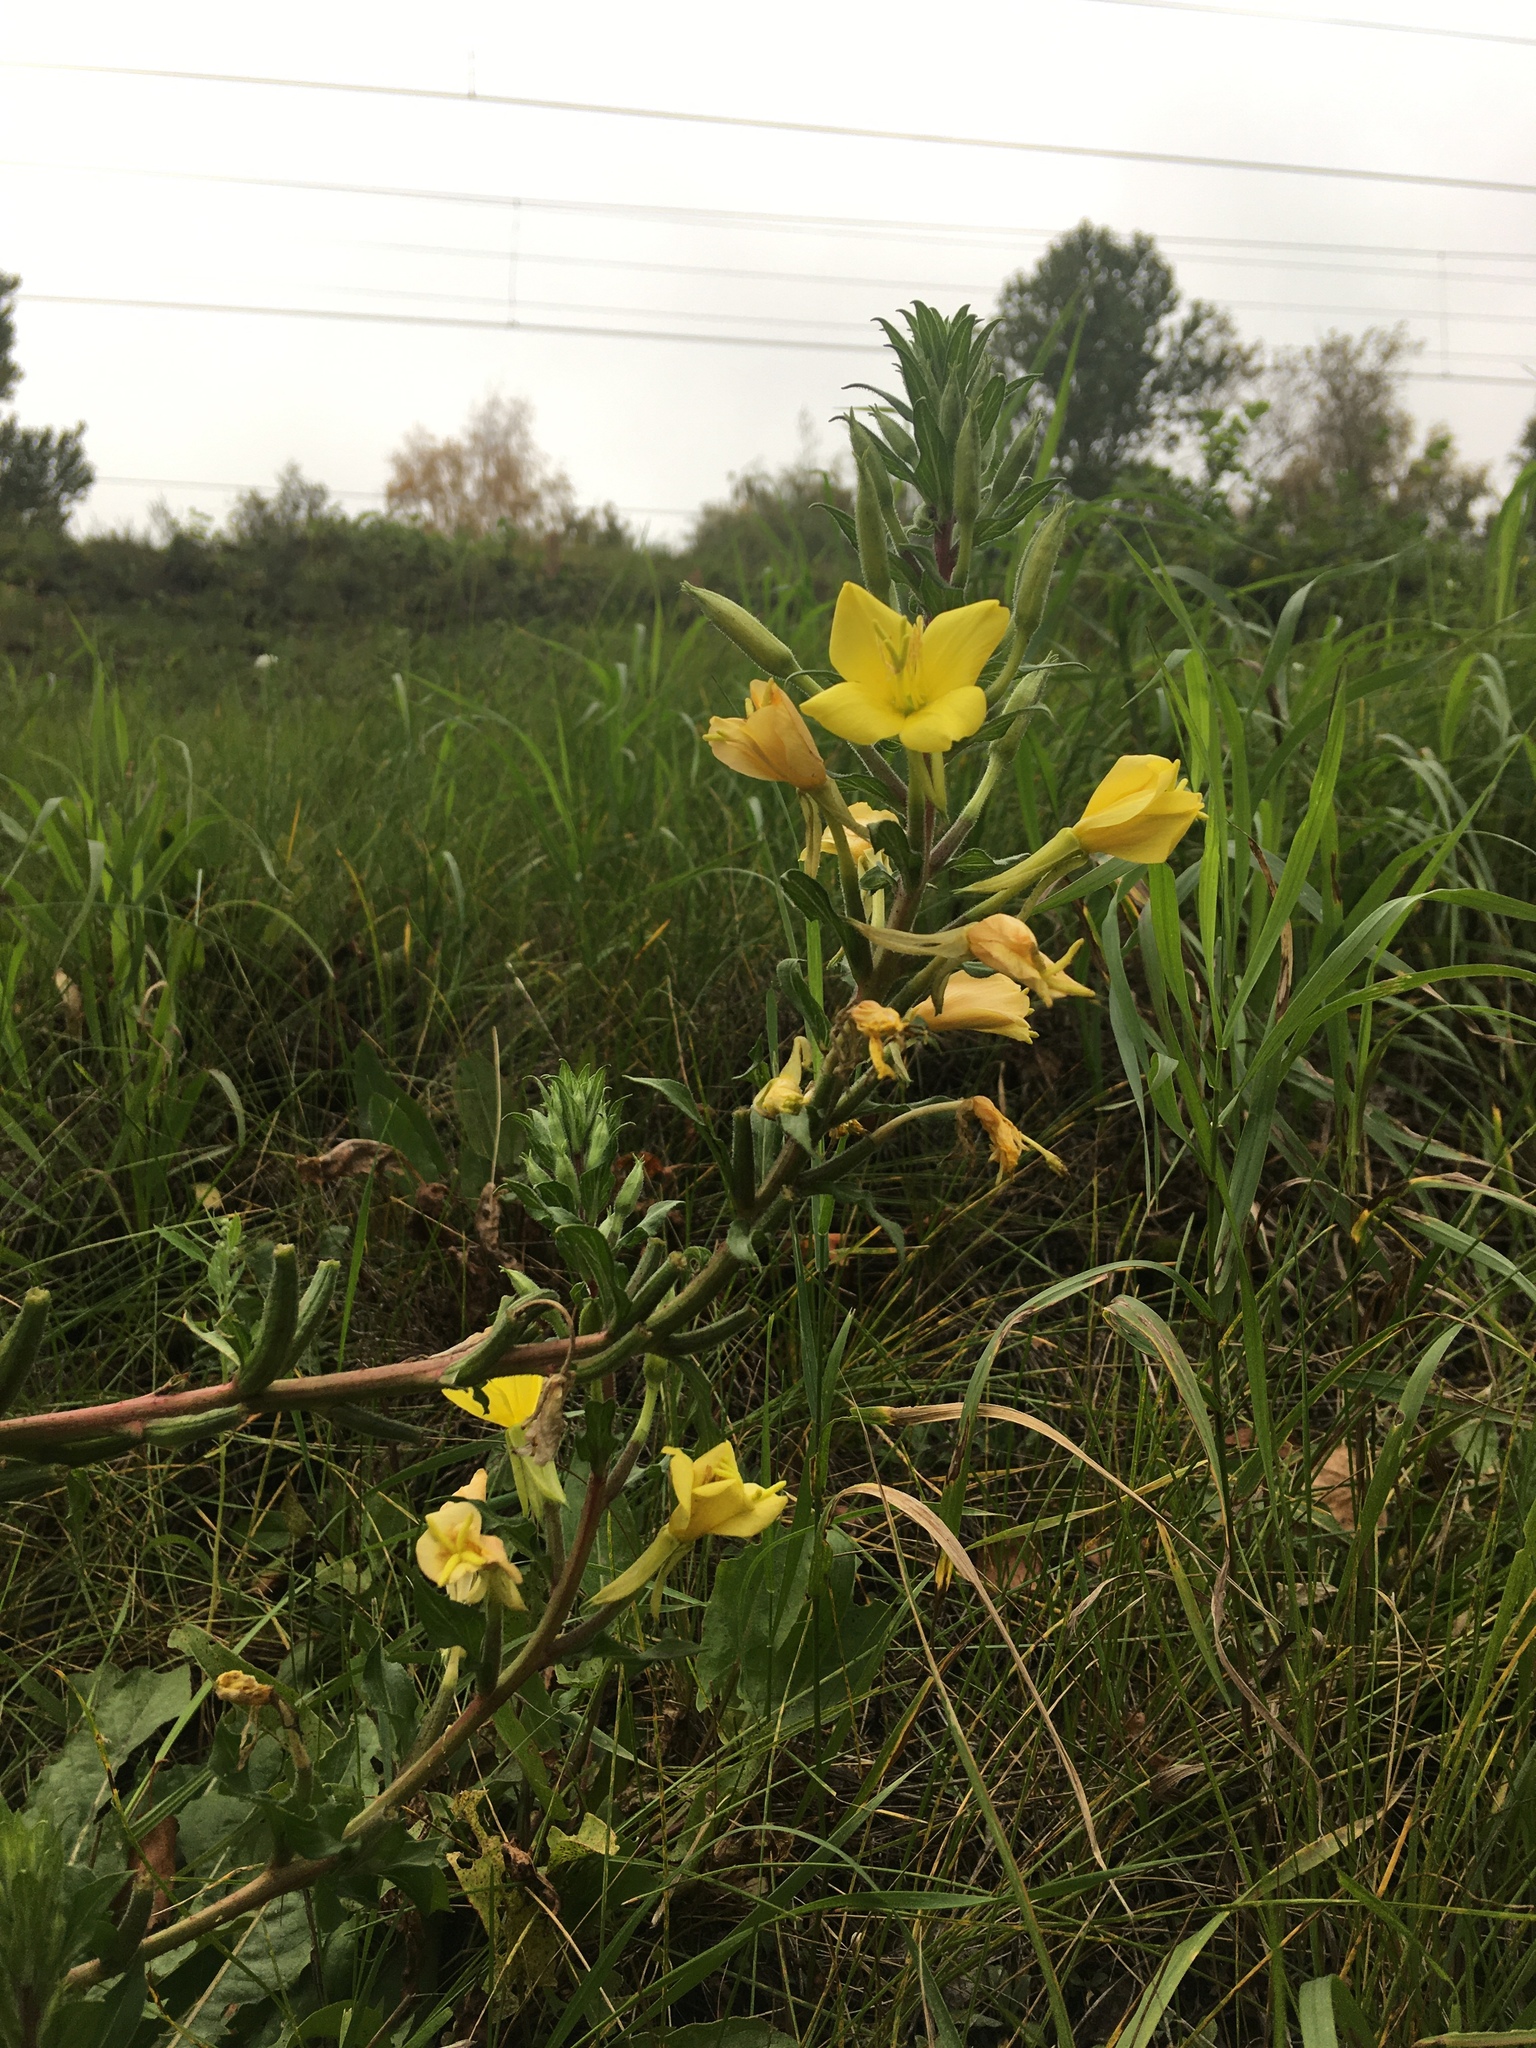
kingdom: Plantae
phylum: Tracheophyta
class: Magnoliopsida
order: Myrtales
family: Onagraceae
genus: Oenothera
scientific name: Oenothera rubricaulis
